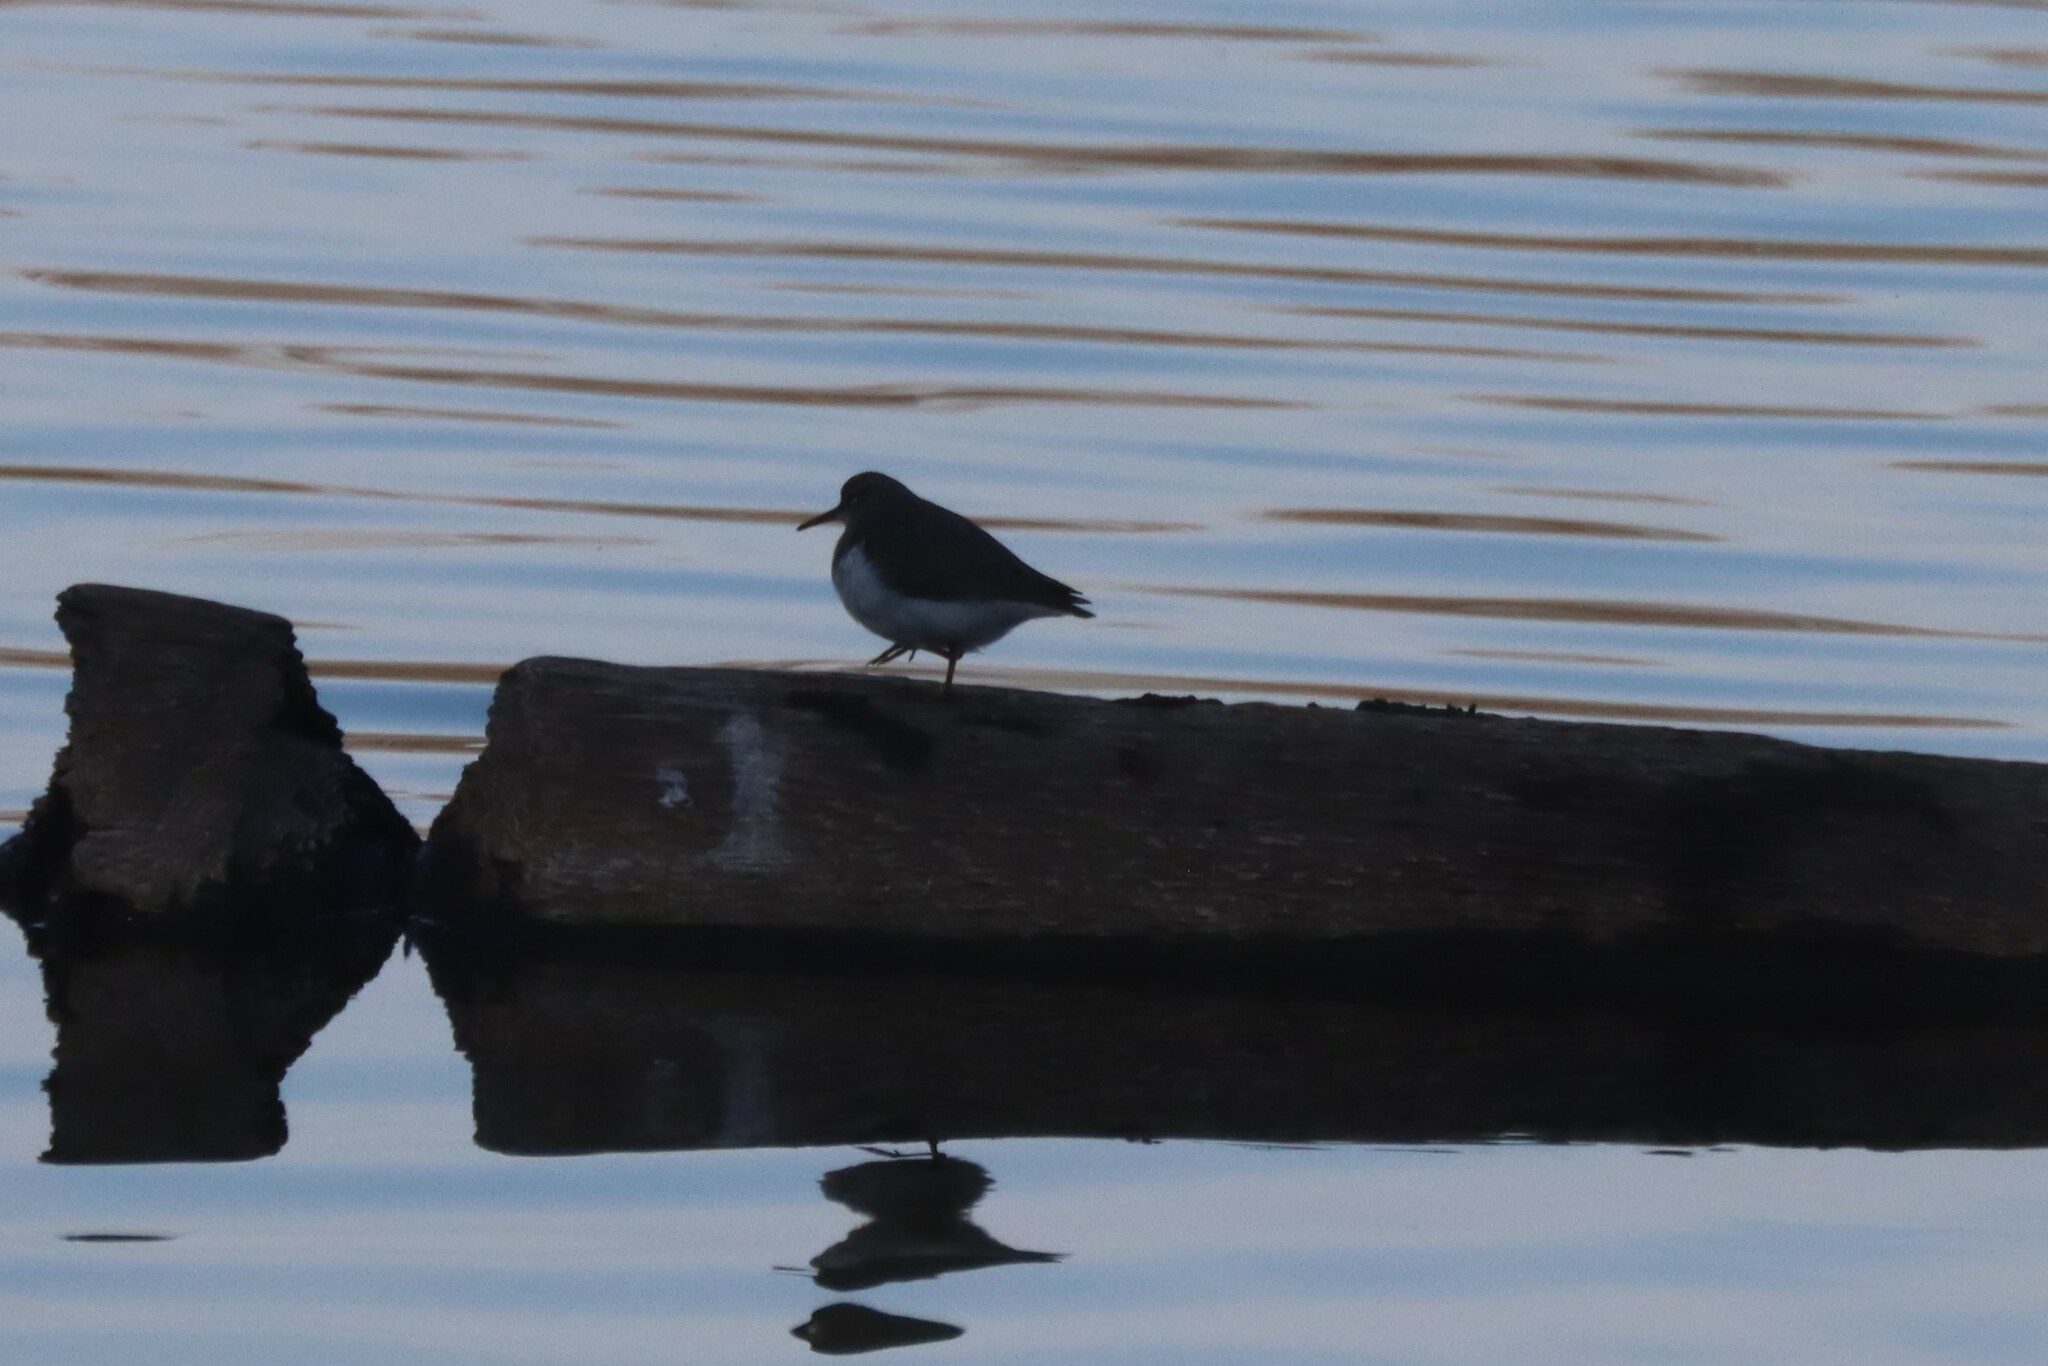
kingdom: Animalia
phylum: Chordata
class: Aves
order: Charadriiformes
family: Scolopacidae
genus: Actitis
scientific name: Actitis macularius
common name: Spotted sandpiper
